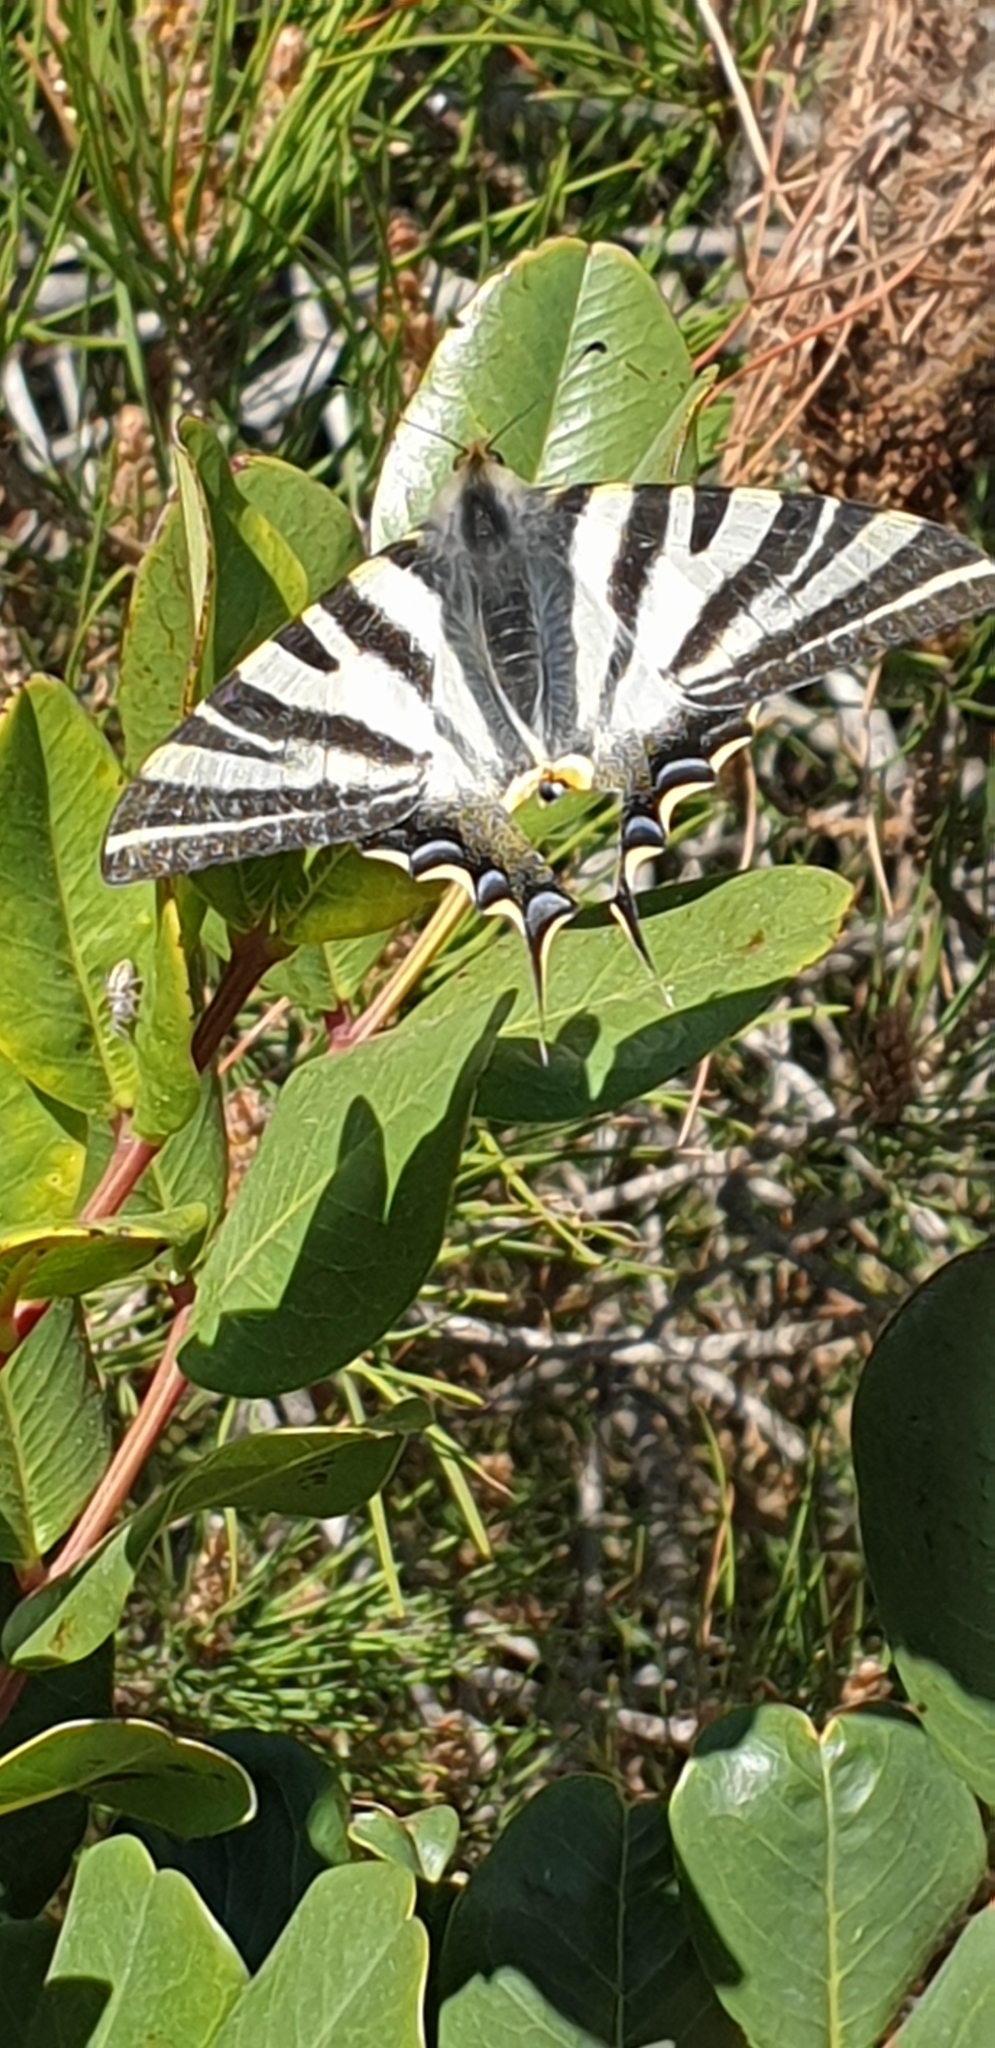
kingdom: Animalia
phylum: Arthropoda
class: Insecta
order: Lepidoptera
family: Papilionidae
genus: Iphiclides
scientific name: Iphiclides feisthamelii
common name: Iberian scarce swallowtail
